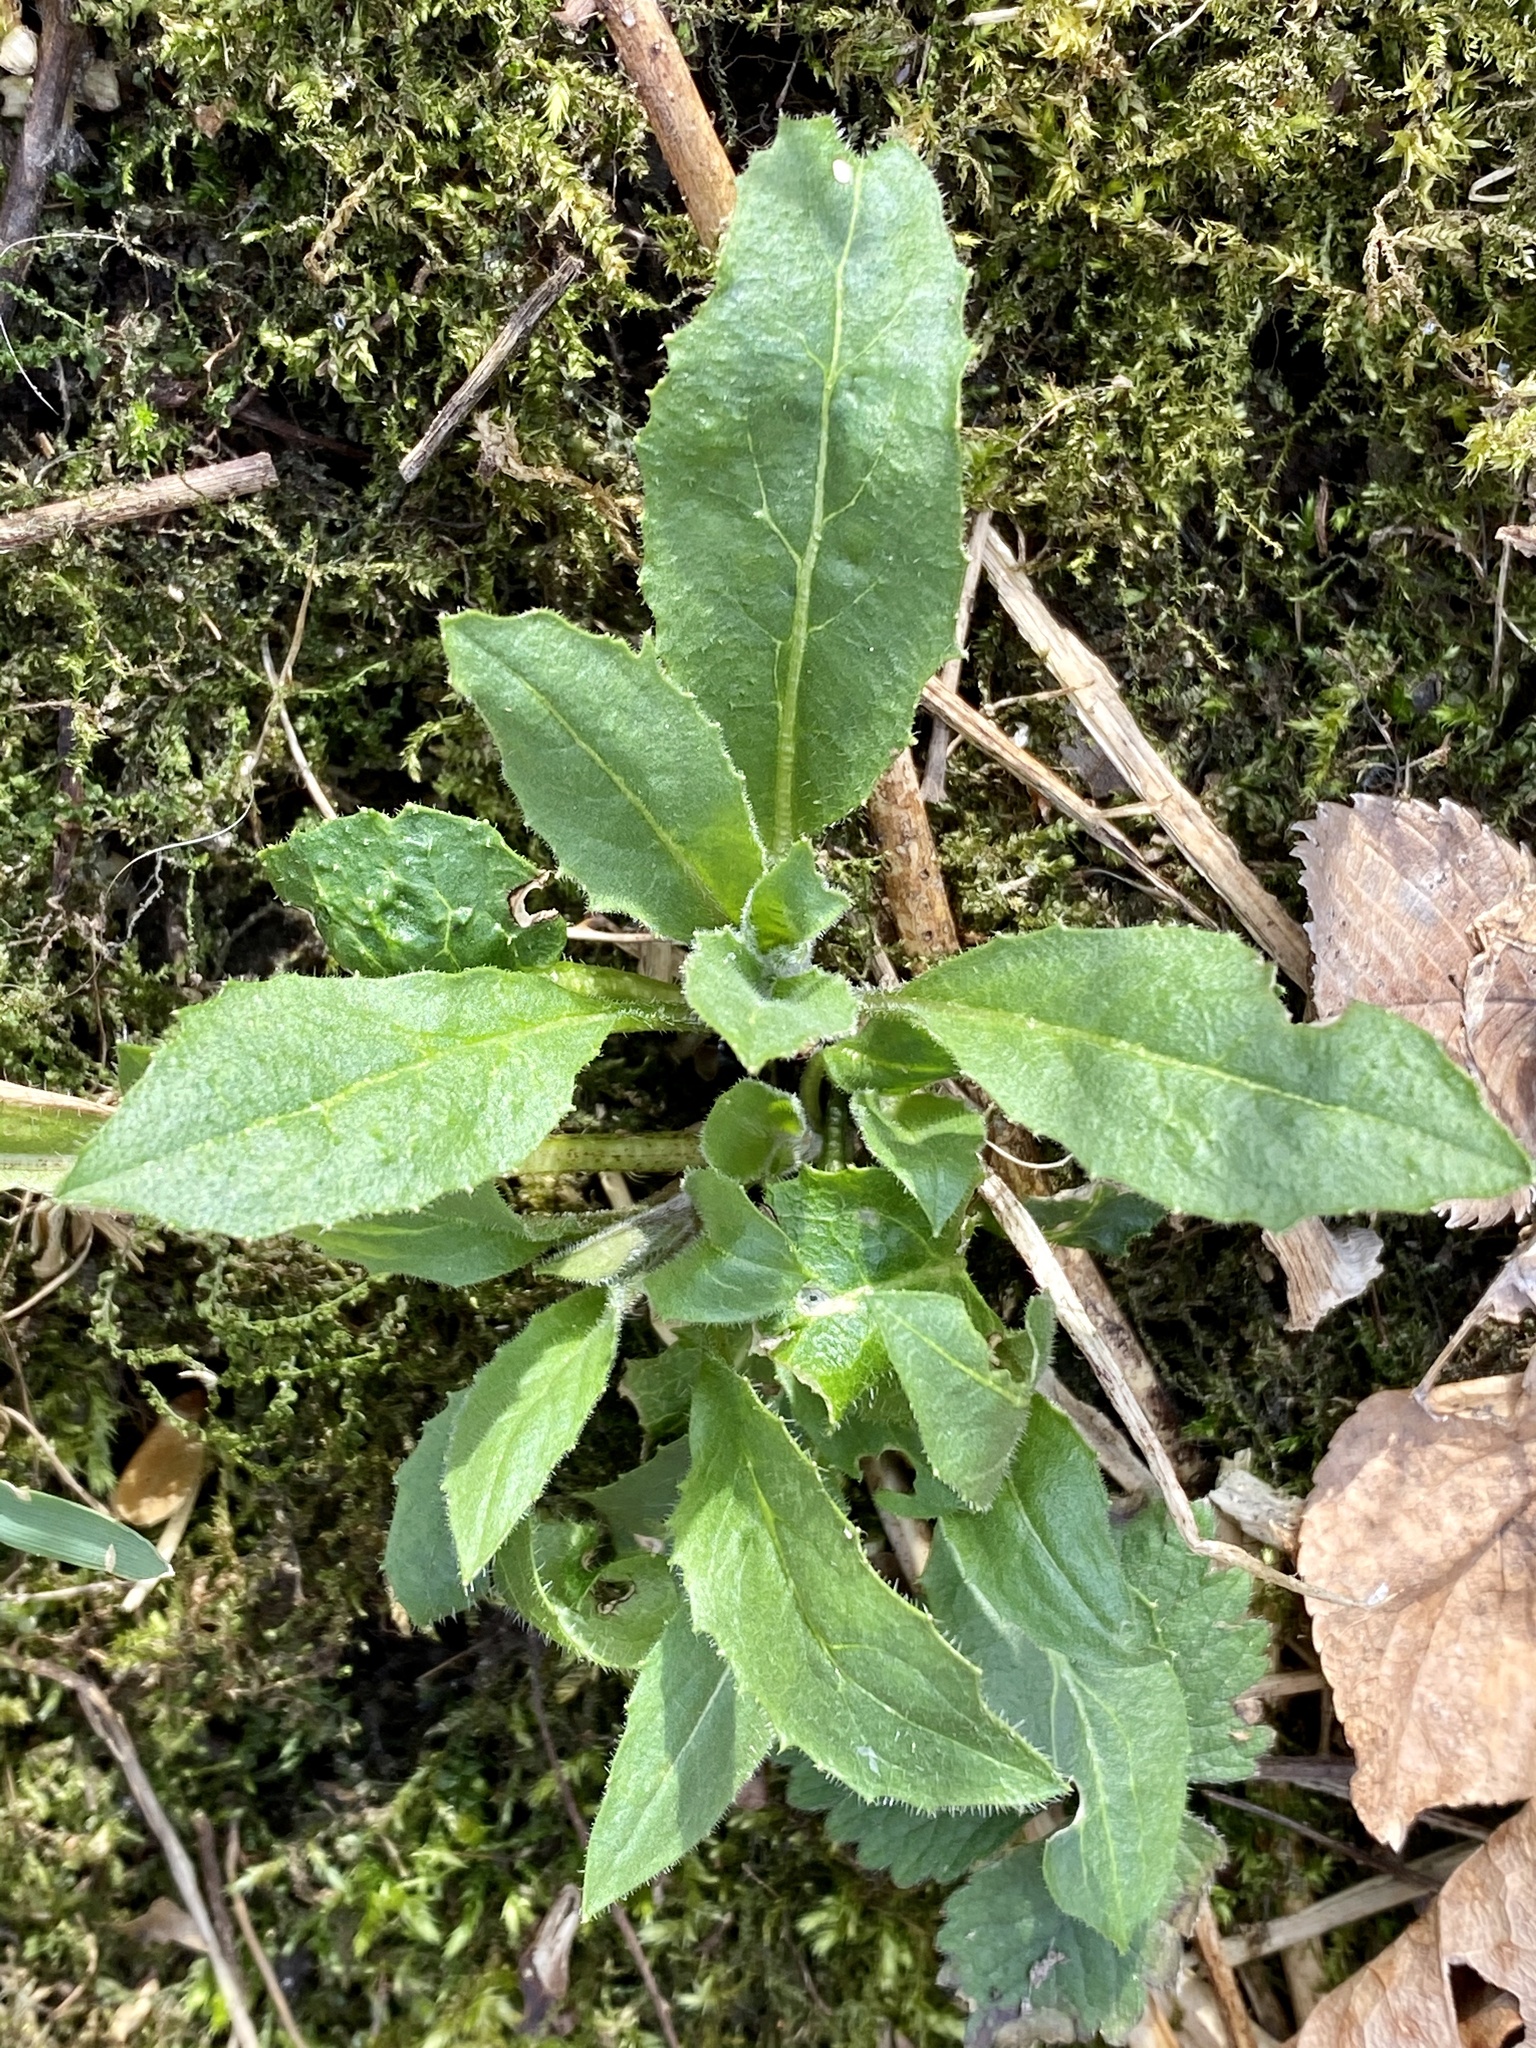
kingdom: Plantae
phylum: Tracheophyta
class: Magnoliopsida
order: Brassicales
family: Brassicaceae
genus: Hesperis
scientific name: Hesperis matronalis
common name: Dame's-violet
